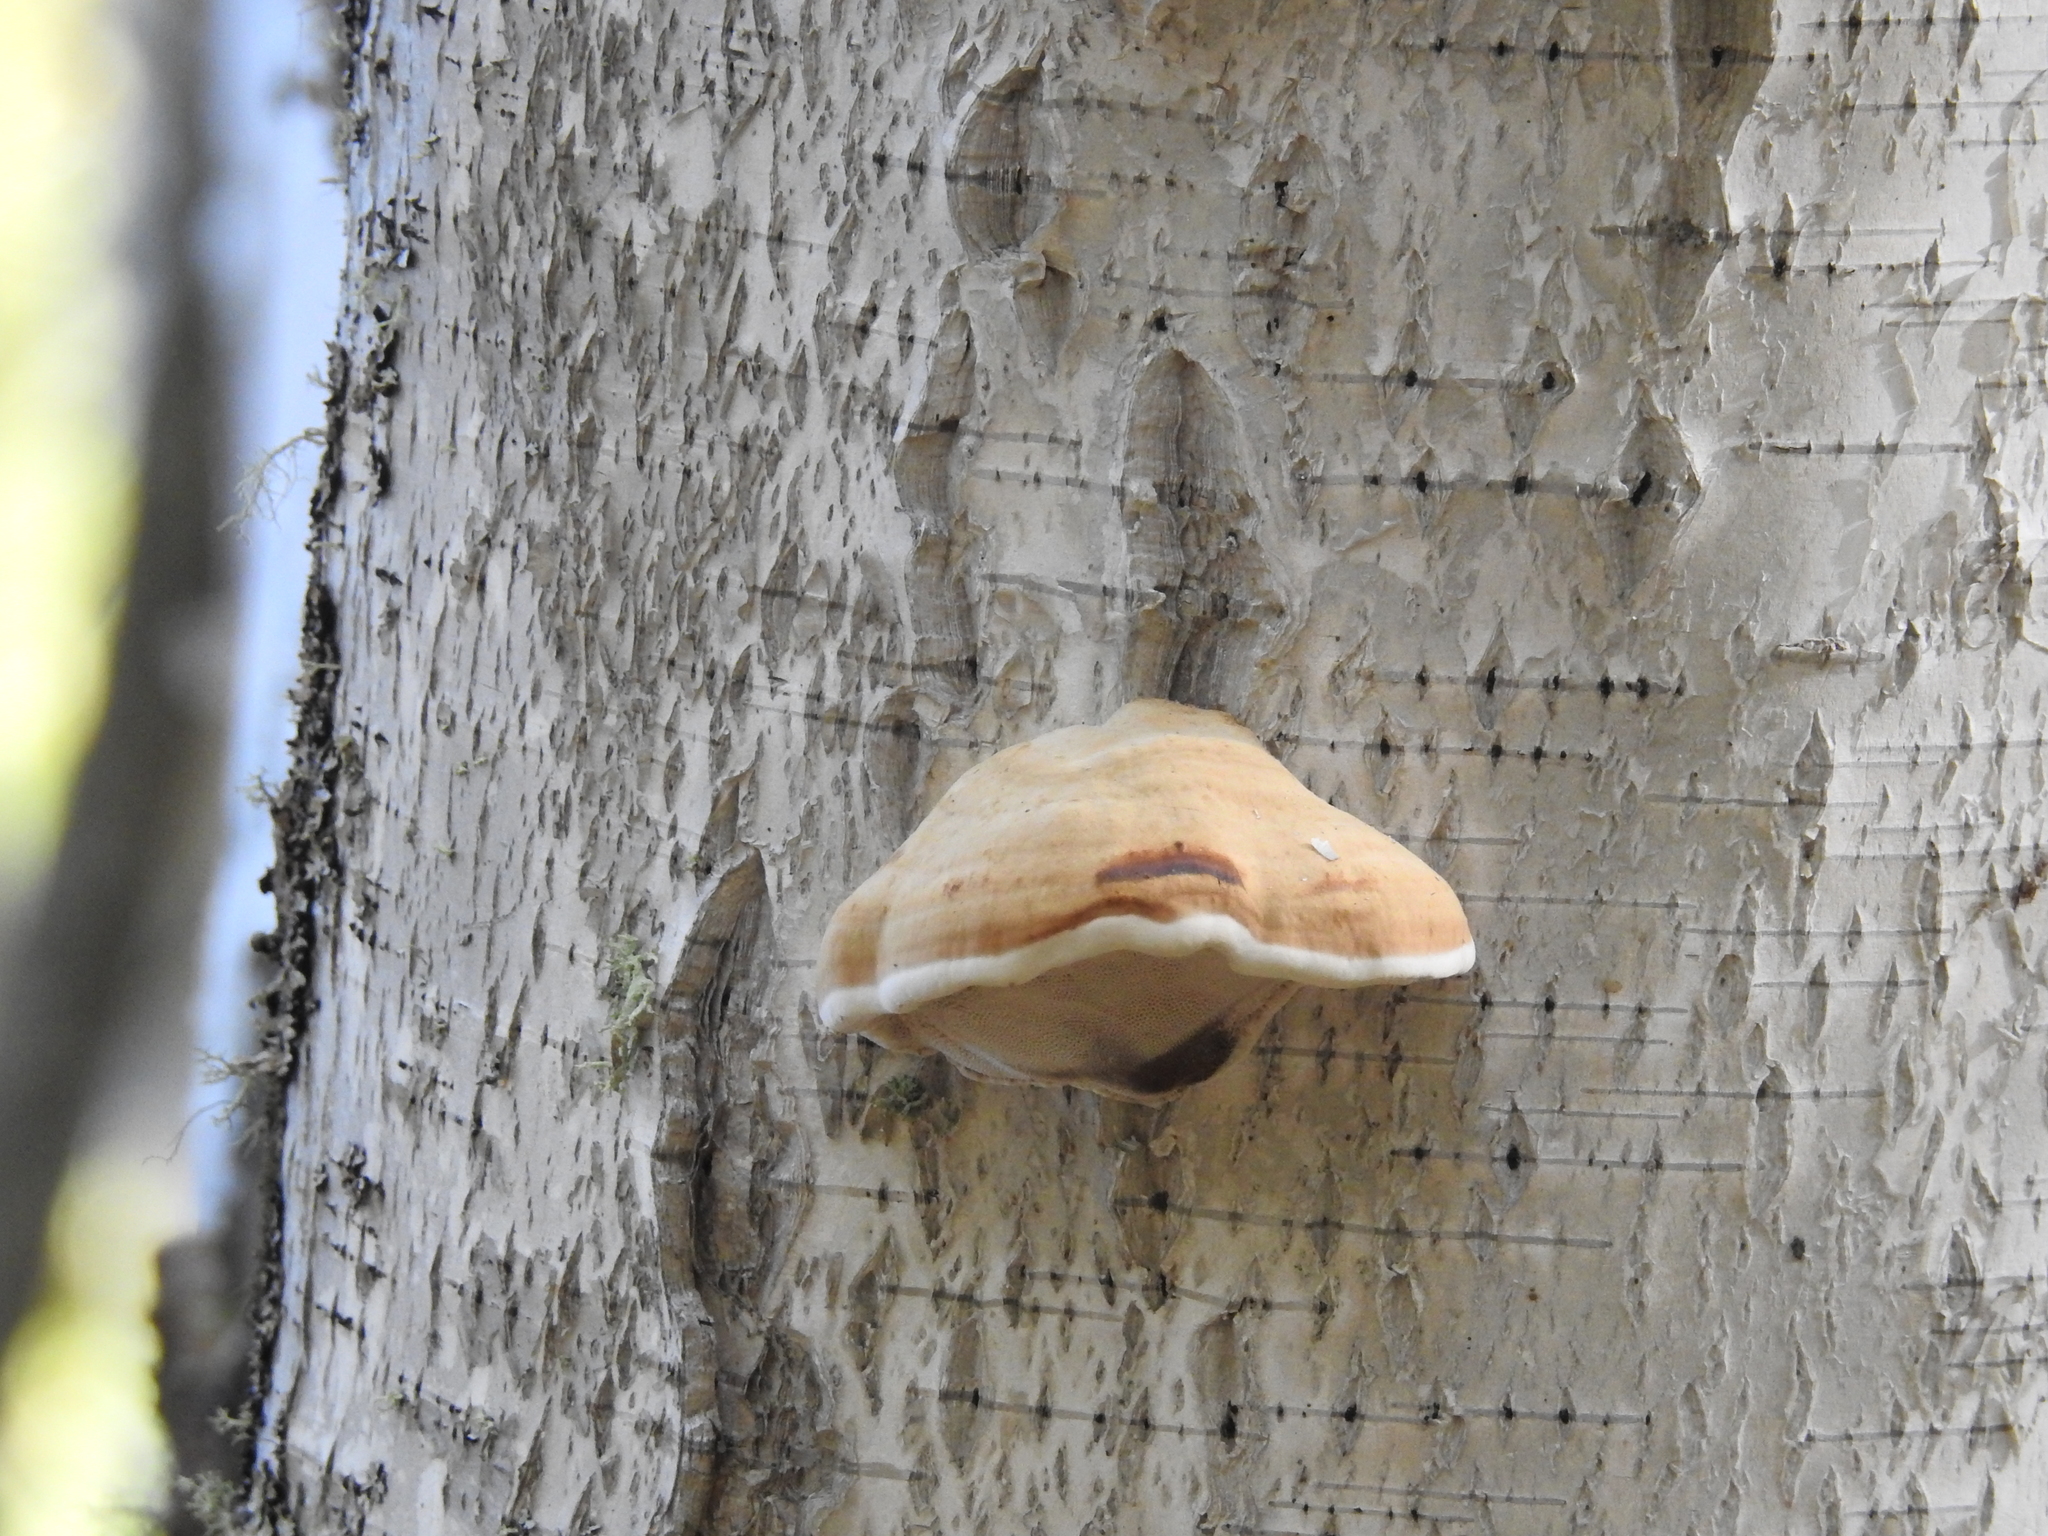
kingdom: Fungi
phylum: Basidiomycota
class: Agaricomycetes
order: Polyporales
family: Polyporaceae
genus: Fomes
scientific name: Fomes fomentarius
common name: Hoof fungus
